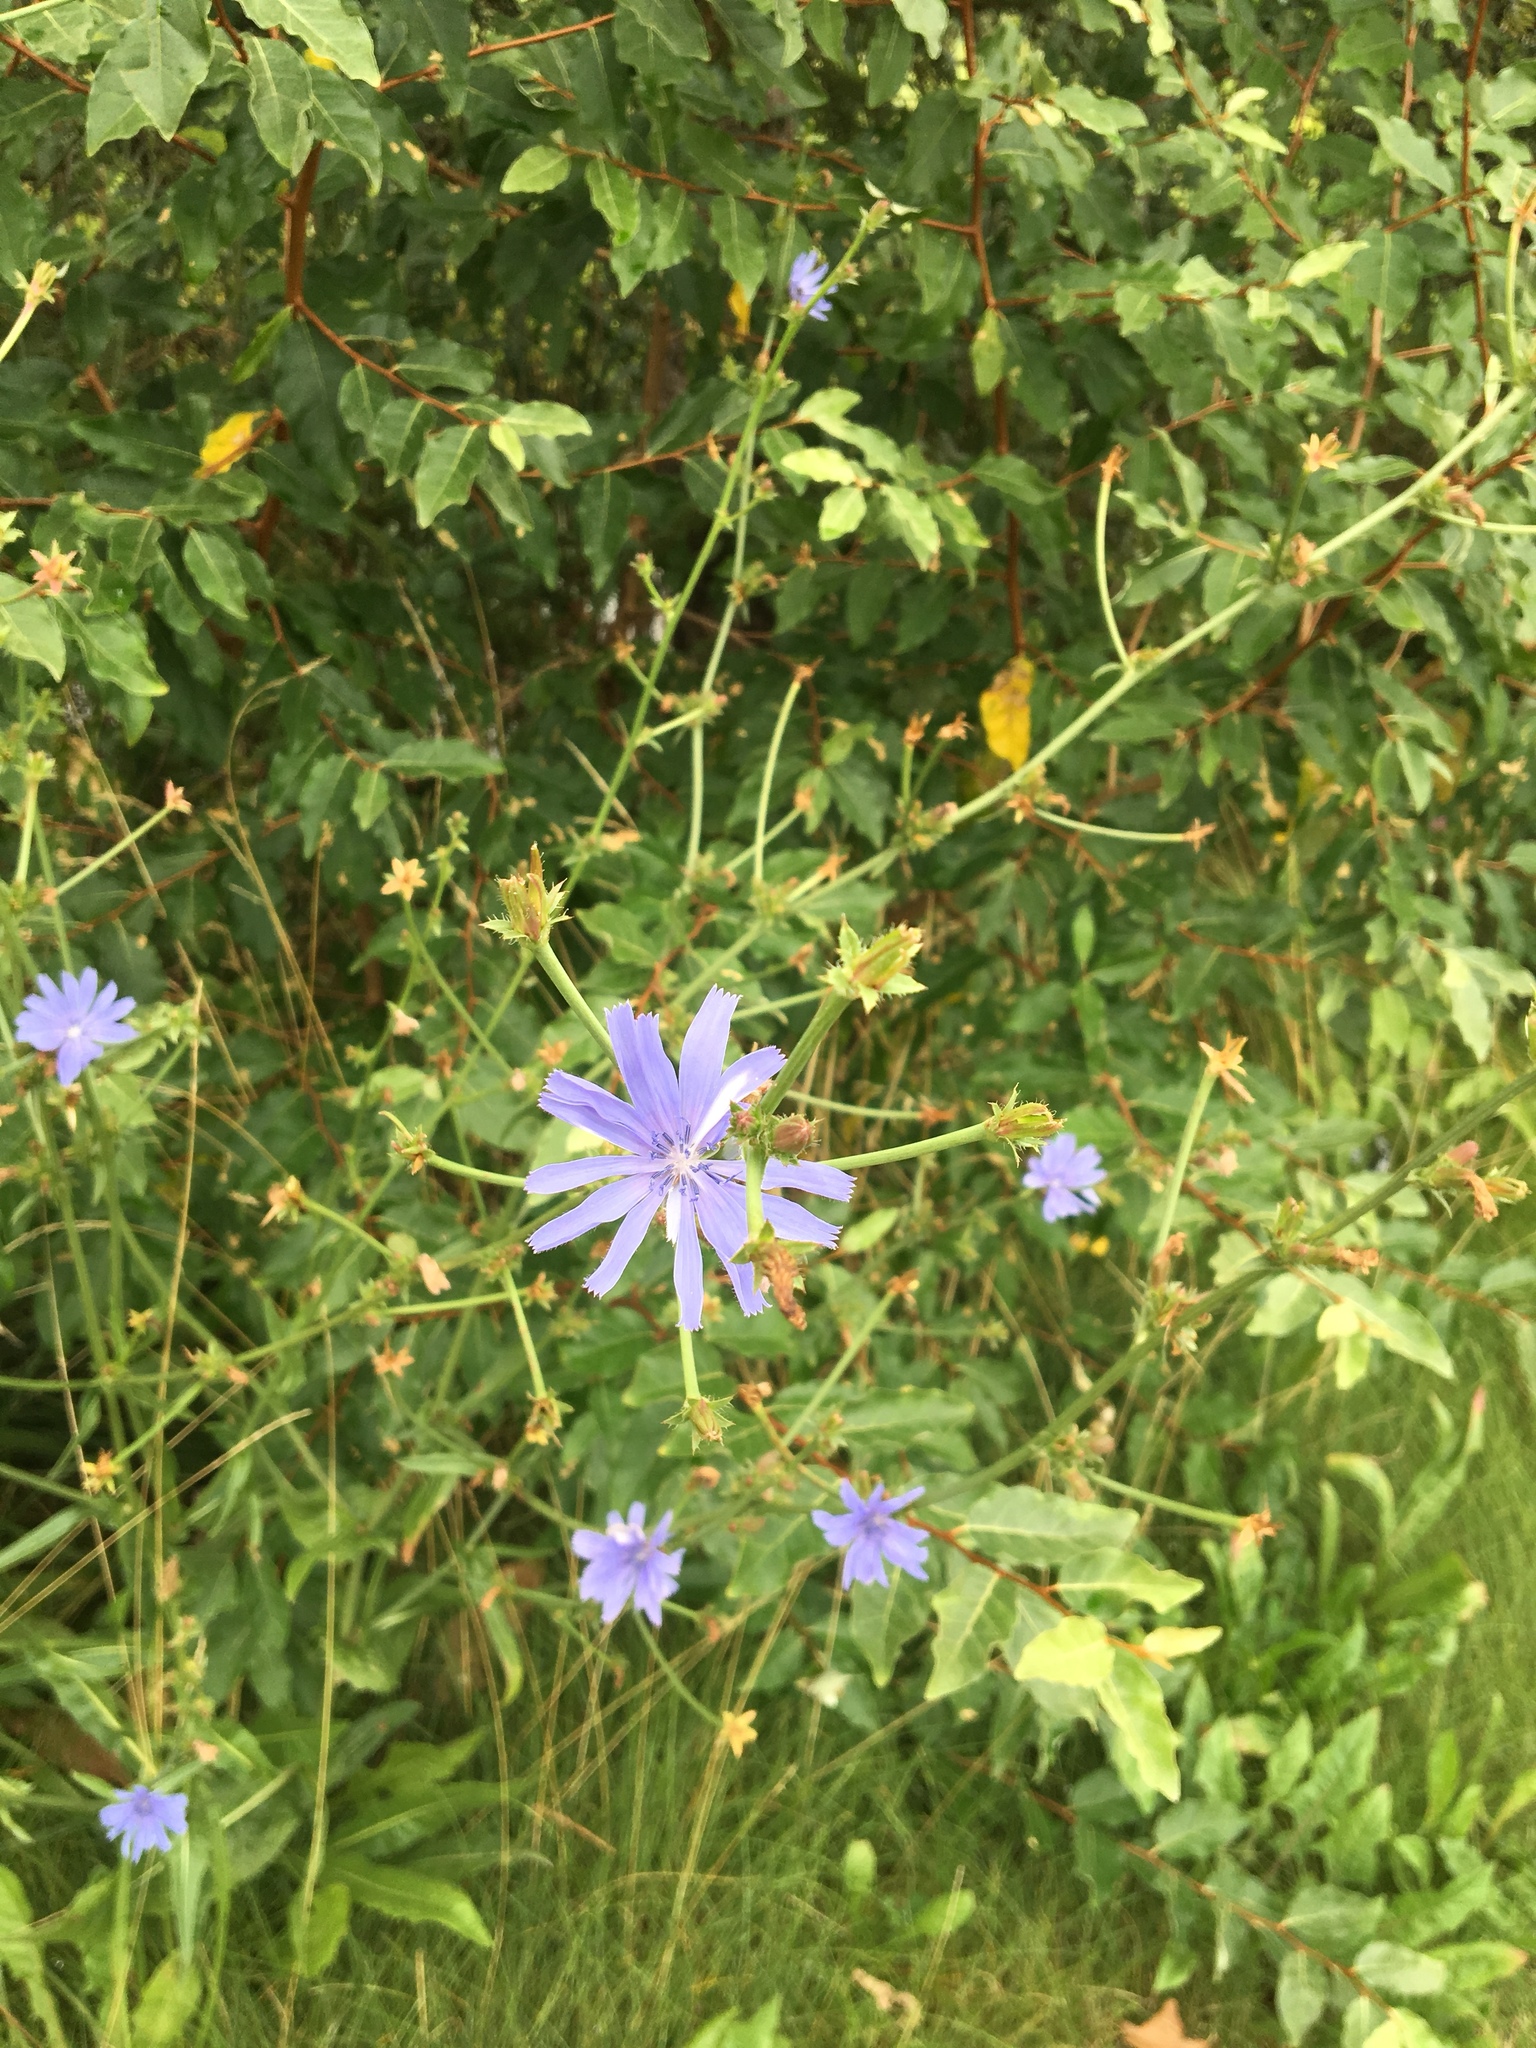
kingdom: Plantae
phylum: Tracheophyta
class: Magnoliopsida
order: Asterales
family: Asteraceae
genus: Cichorium
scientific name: Cichorium intybus
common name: Chicory
